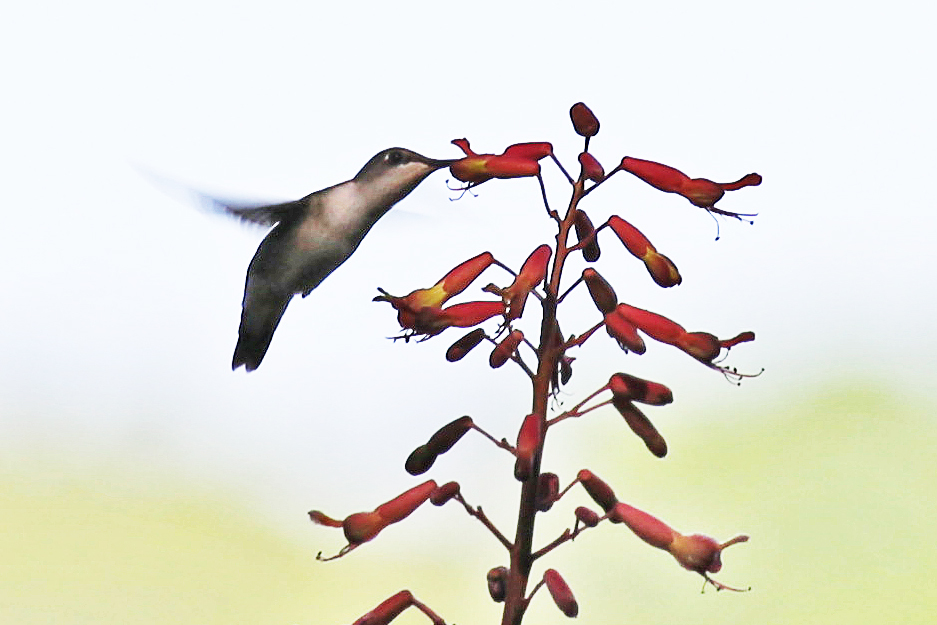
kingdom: Animalia
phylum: Chordata
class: Aves
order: Apodiformes
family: Trochilidae
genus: Archilochus
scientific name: Archilochus colubris
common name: Ruby-throated hummingbird
